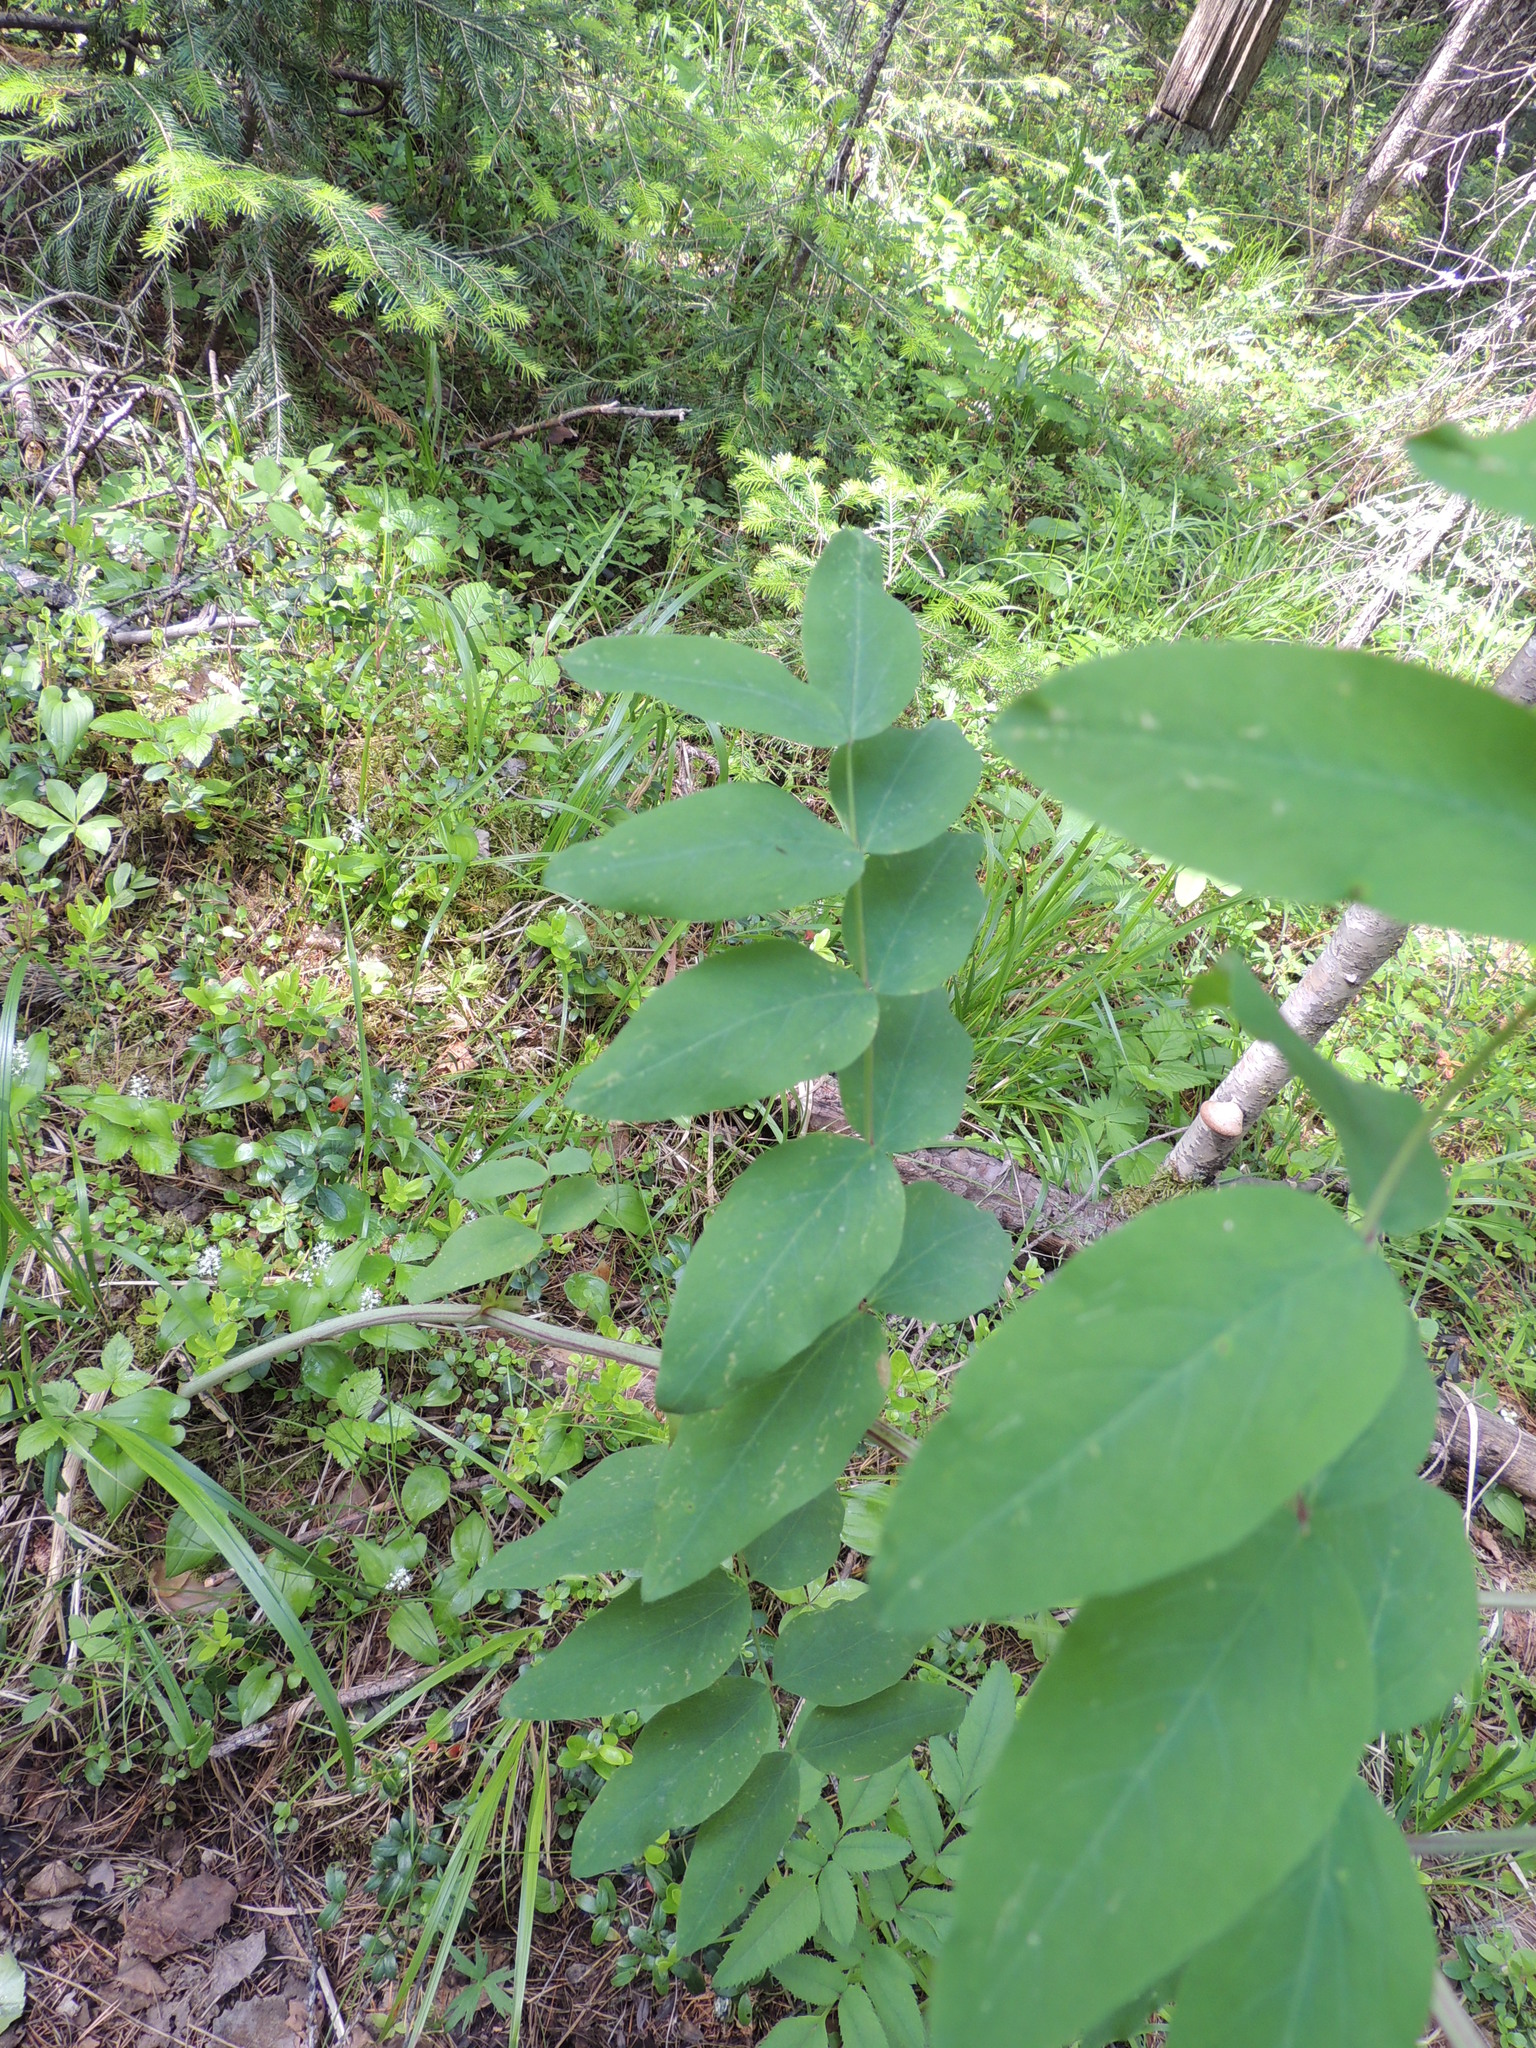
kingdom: Plantae
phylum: Tracheophyta
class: Magnoliopsida
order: Fabales
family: Fabaceae
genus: Lathyrus
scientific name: Lathyrus gmelinii
